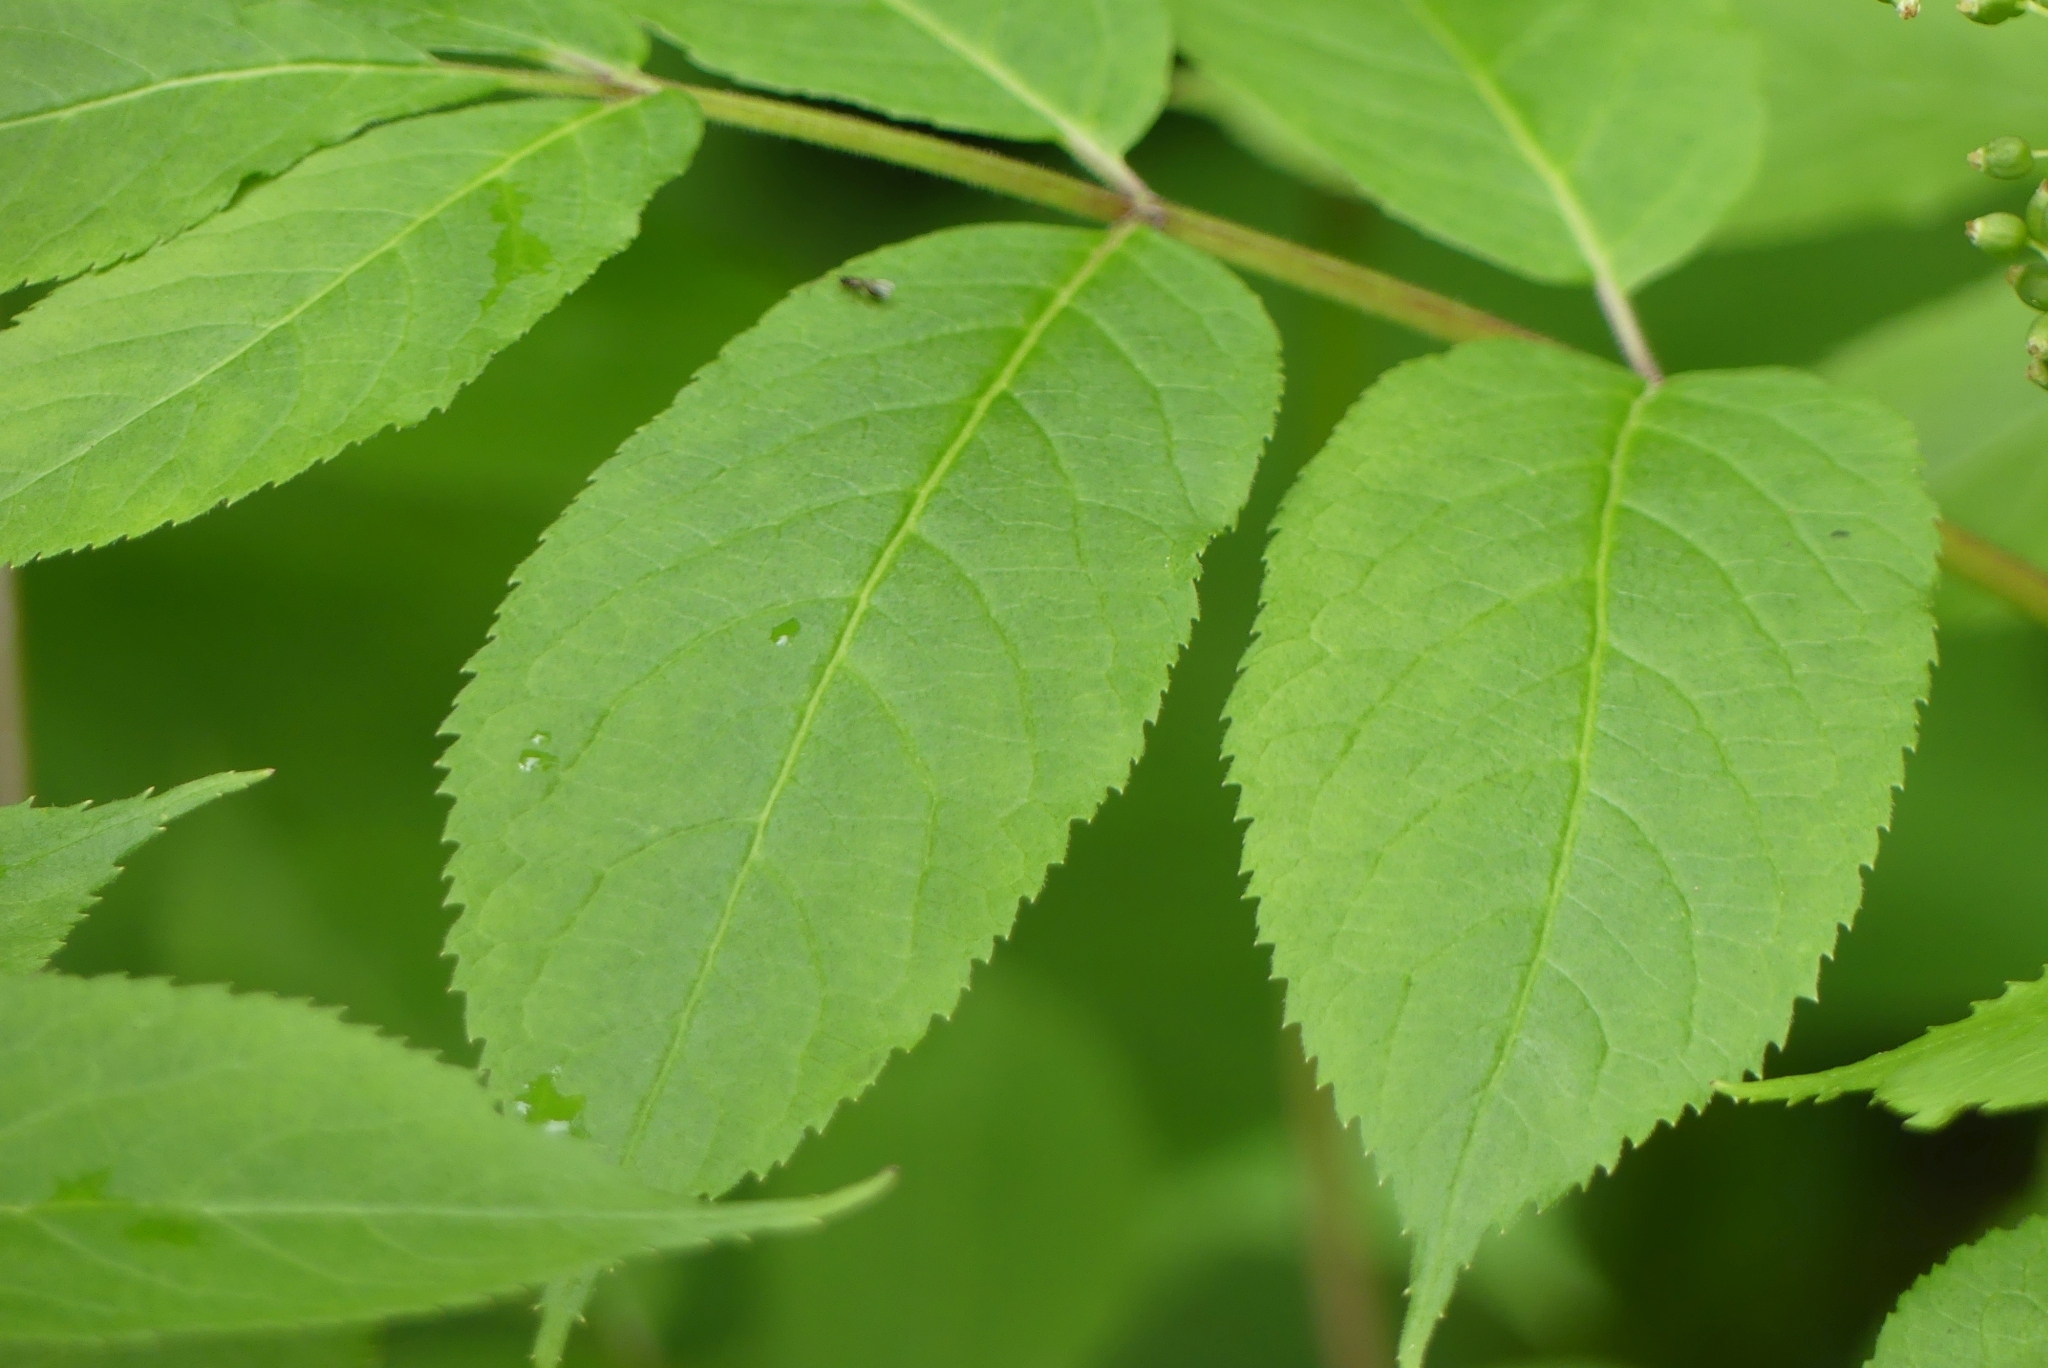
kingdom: Plantae
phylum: Tracheophyta
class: Magnoliopsida
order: Dipsacales
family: Viburnaceae
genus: Sambucus
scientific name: Sambucus racemosa
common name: Red-berried elder
